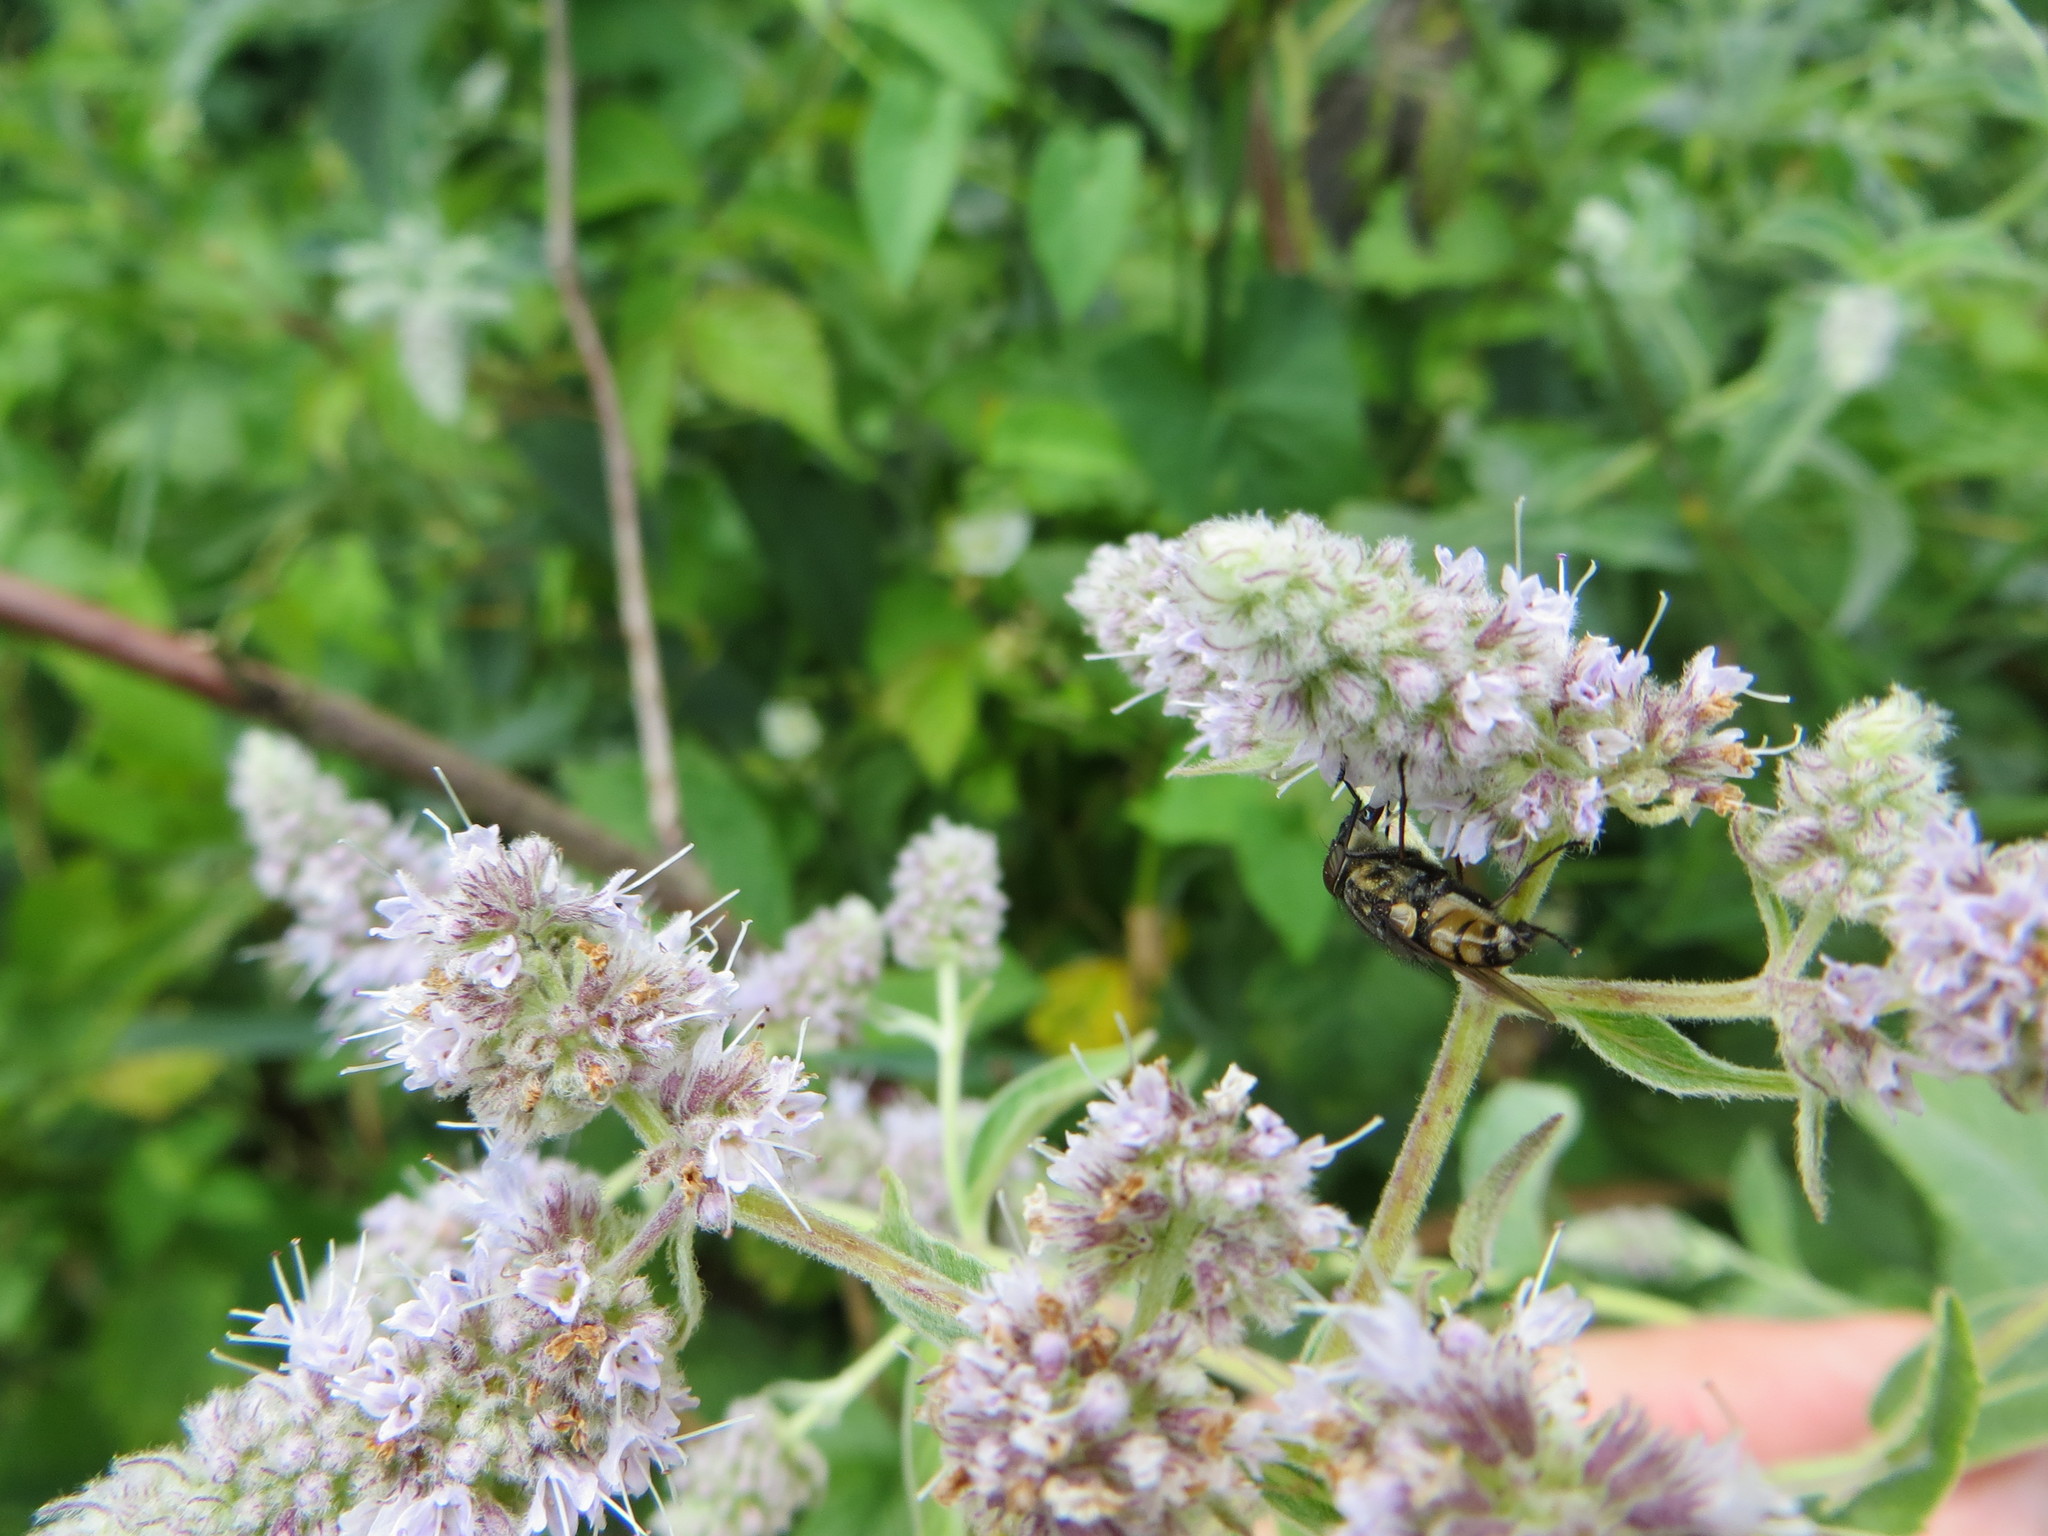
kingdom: Animalia
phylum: Arthropoda
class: Insecta
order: Diptera
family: Calliphoridae
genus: Stomorhina
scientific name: Stomorhina lunata
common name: Locust blowfly
